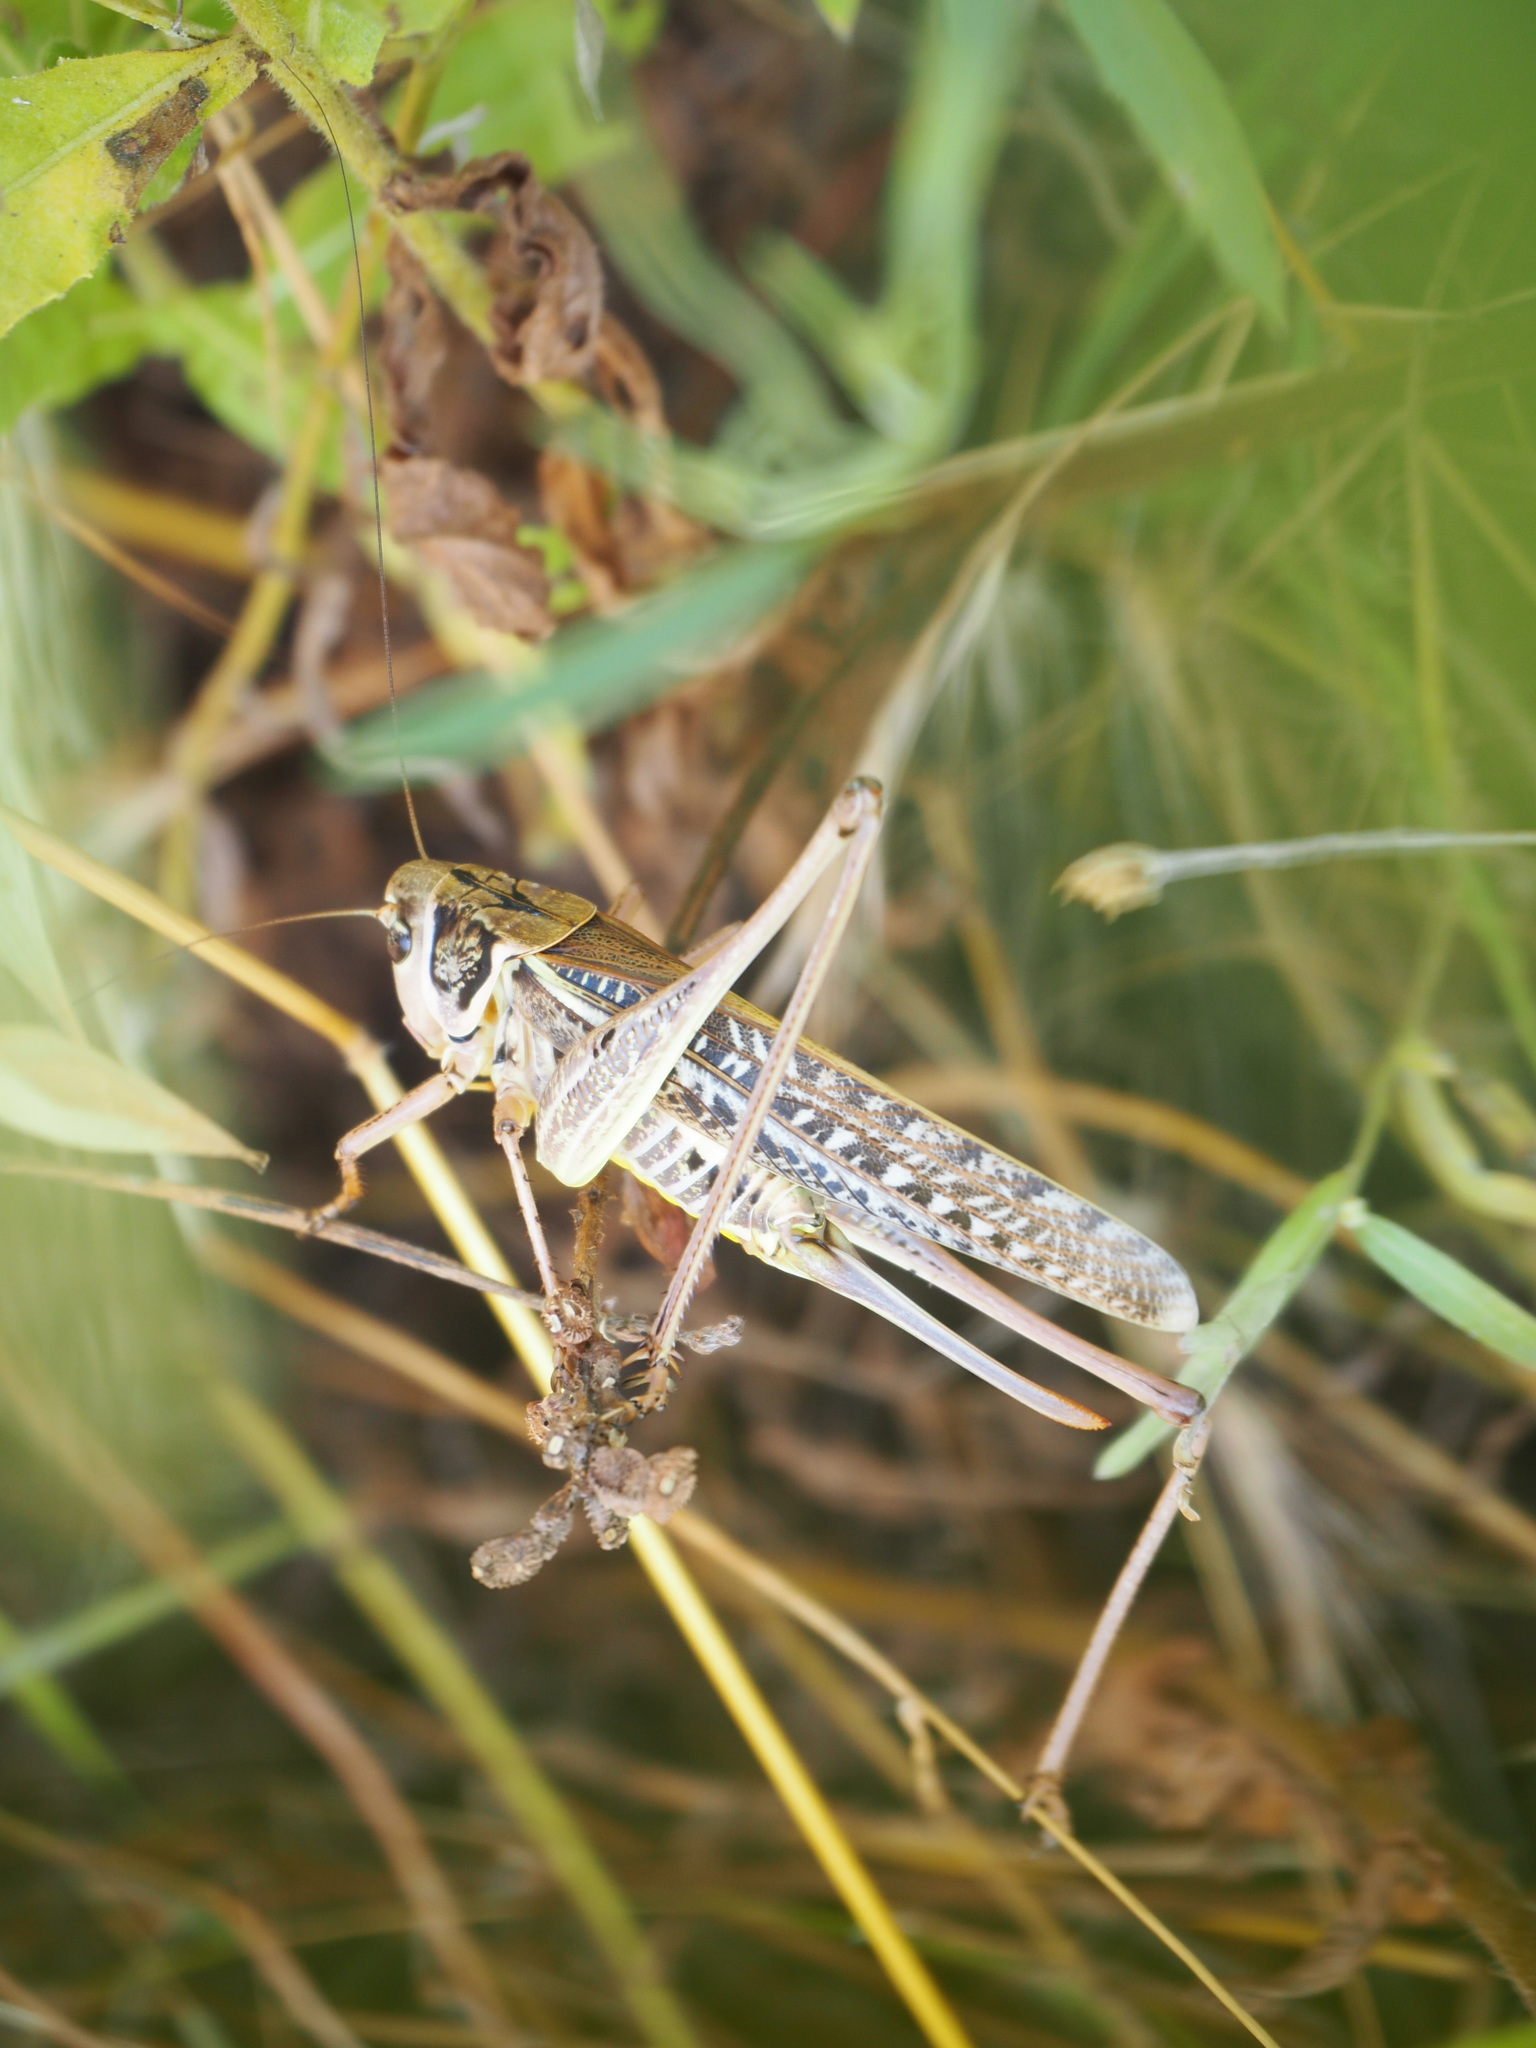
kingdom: Animalia
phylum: Arthropoda
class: Insecta
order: Orthoptera
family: Tettigoniidae
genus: Decticus
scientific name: Decticus albifrons
